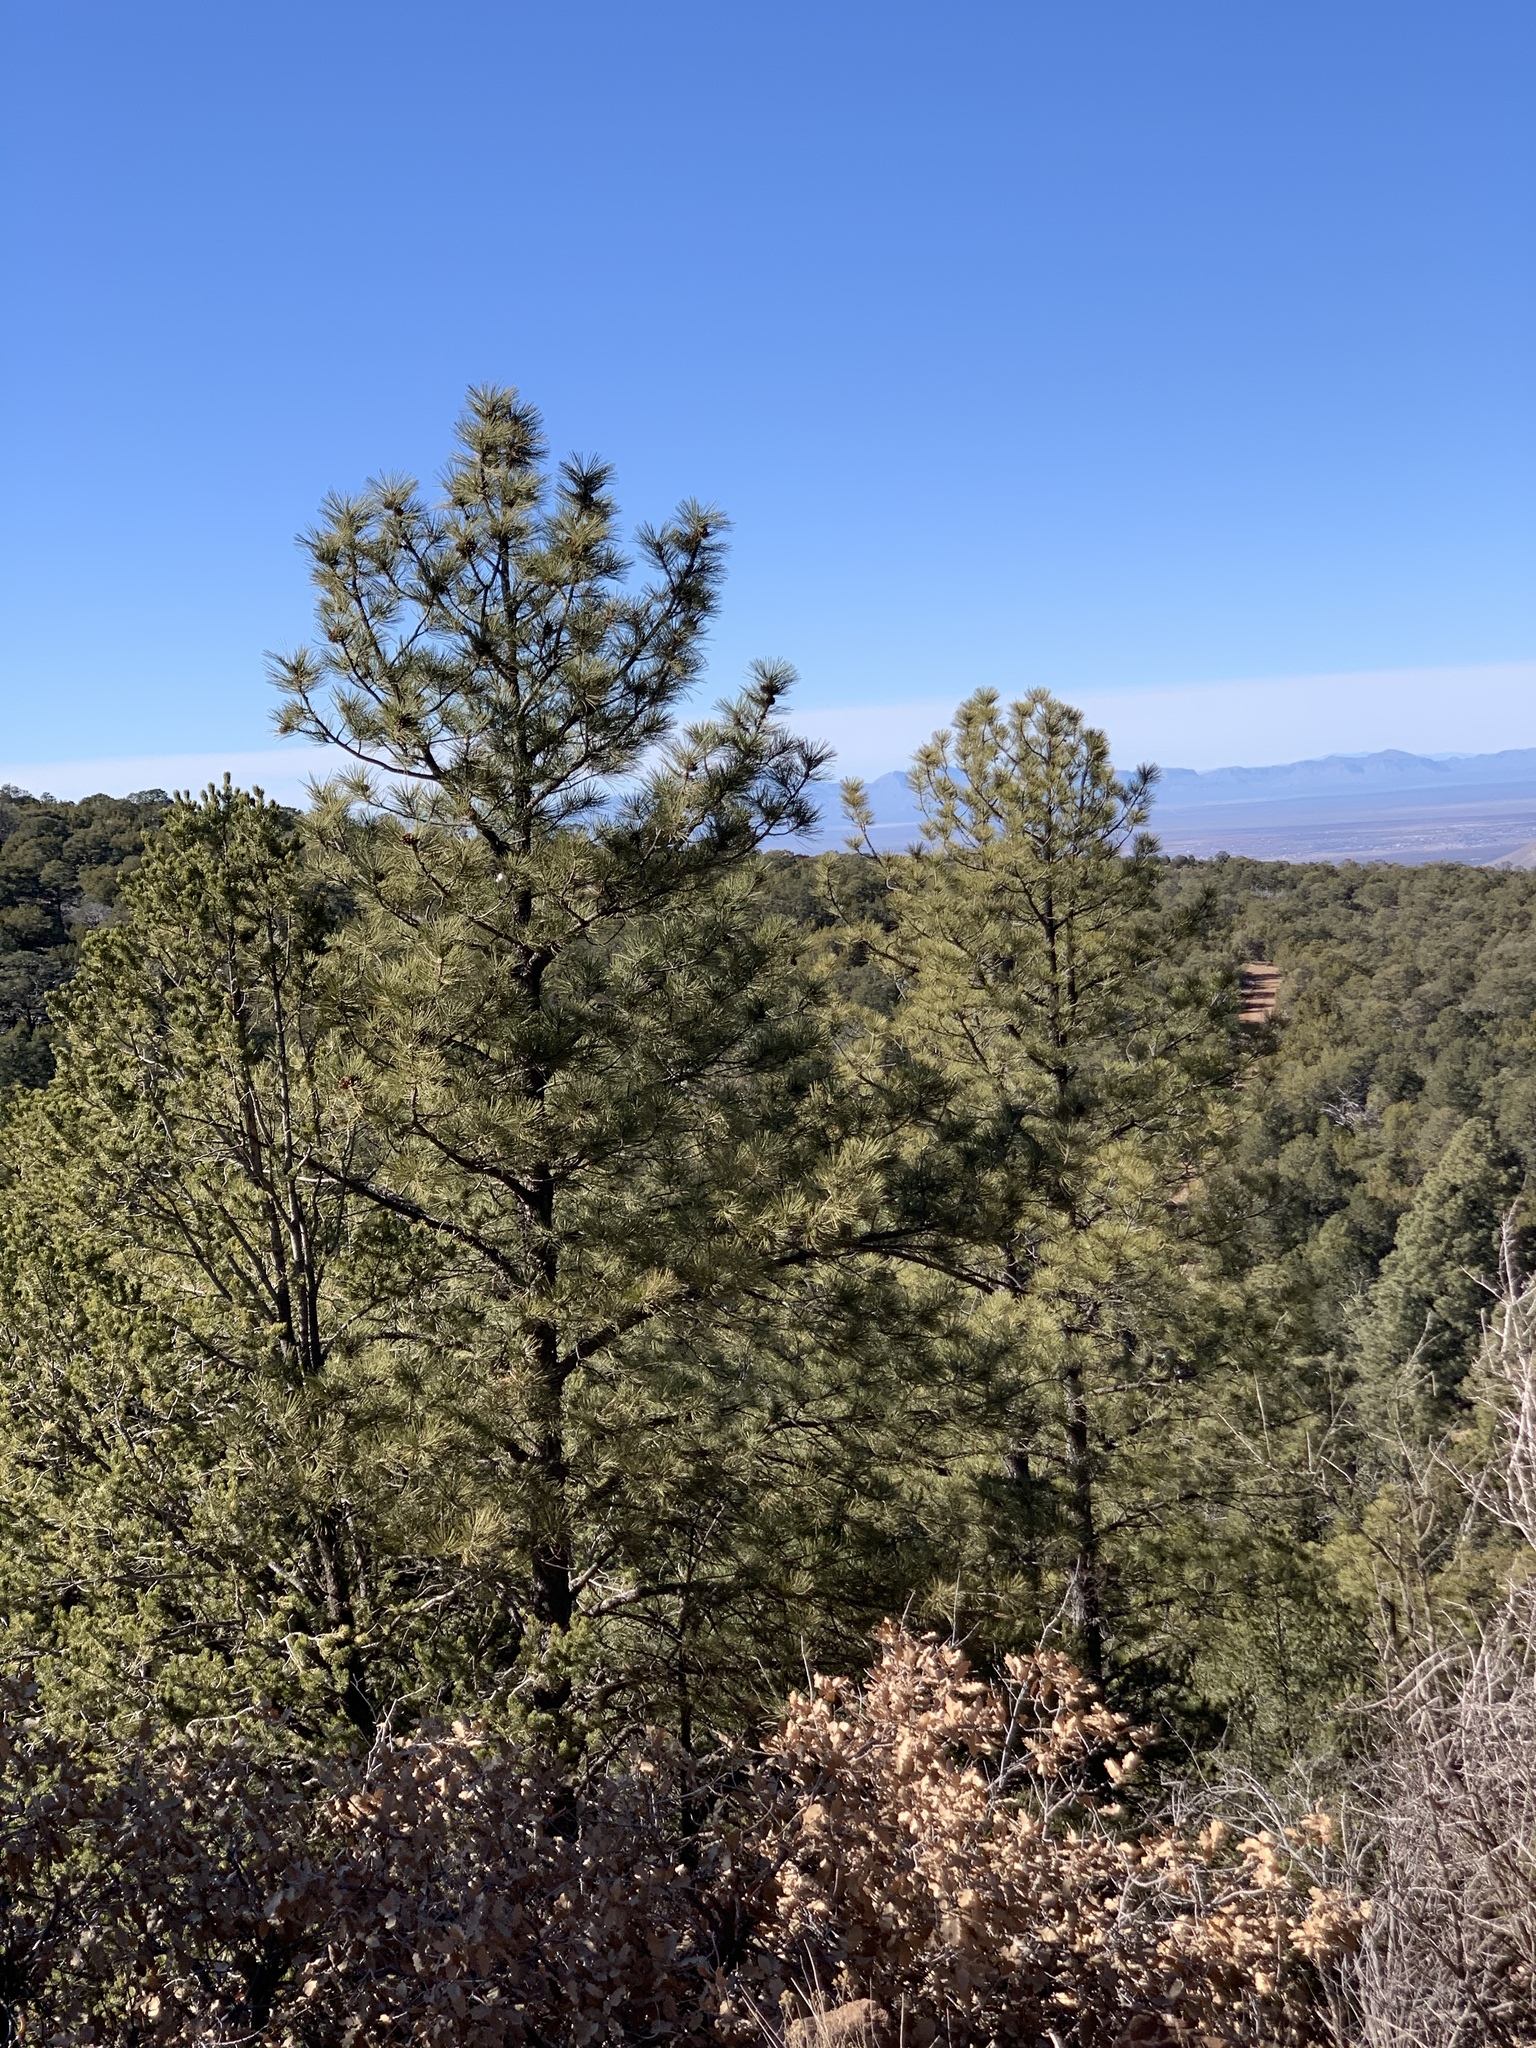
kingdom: Plantae
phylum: Tracheophyta
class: Pinopsida
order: Pinales
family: Pinaceae
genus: Pinus
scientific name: Pinus ponderosa
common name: Western yellow-pine
